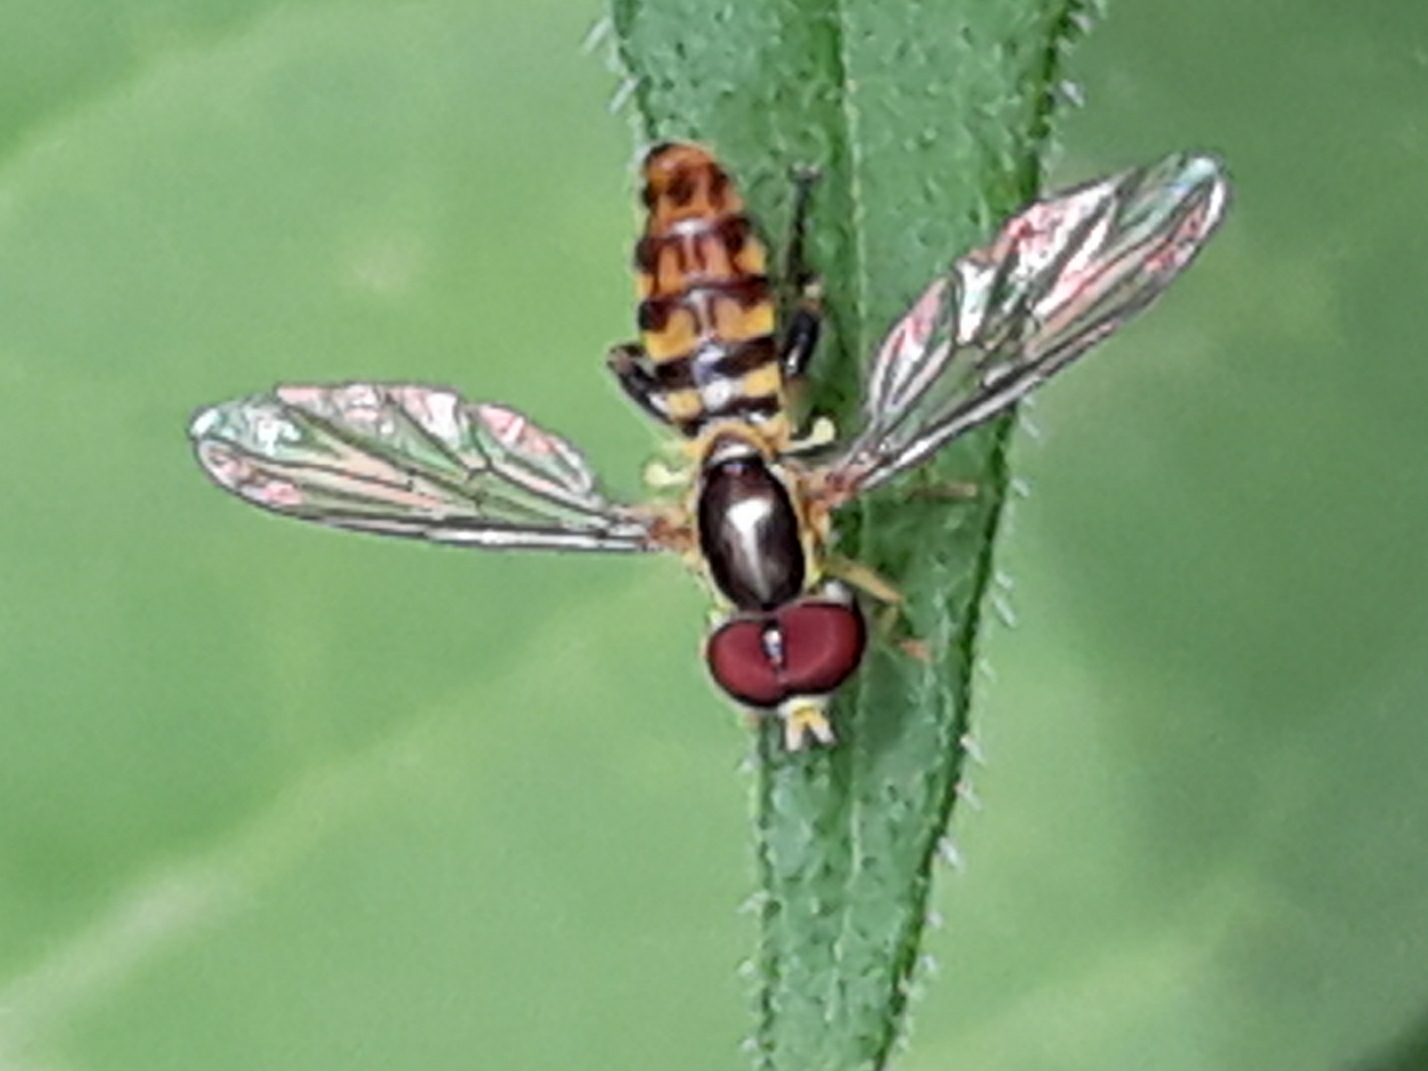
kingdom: Animalia
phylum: Arthropoda
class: Insecta
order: Diptera
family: Syrphidae
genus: Toxomerus
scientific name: Toxomerus geminatus
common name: Eastern calligrapher
